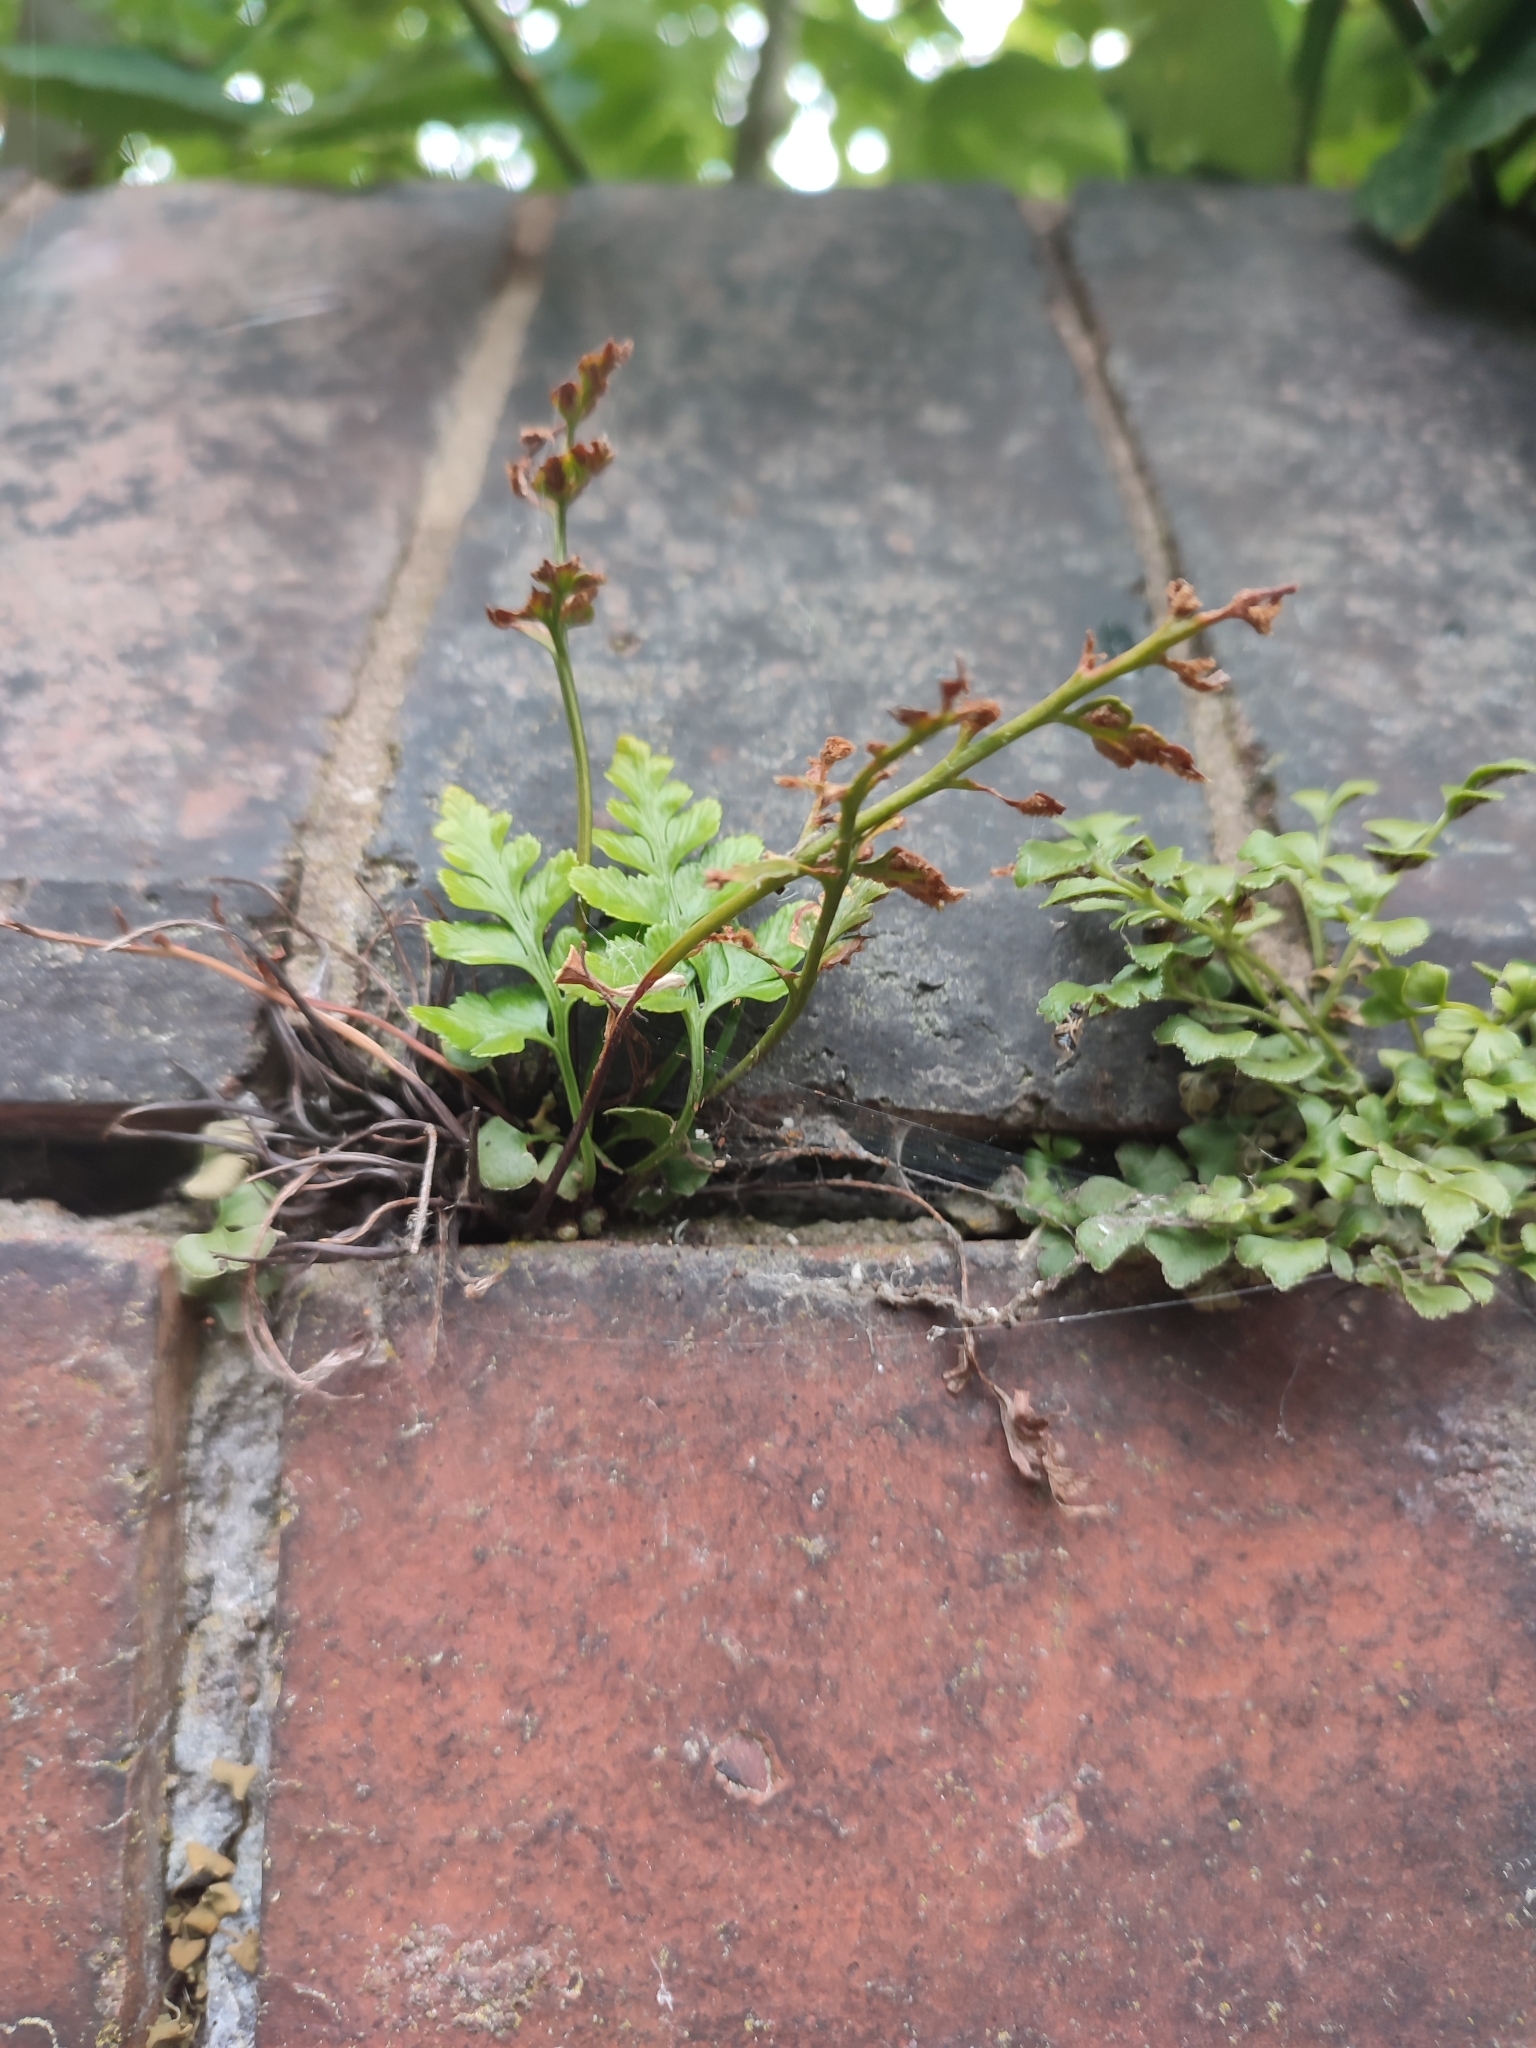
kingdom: Plantae
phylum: Tracheophyta
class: Polypodiopsida
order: Polypodiales
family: Aspleniaceae
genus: Asplenium
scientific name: Asplenium adiantum-nigrum
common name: Black spleenwort
